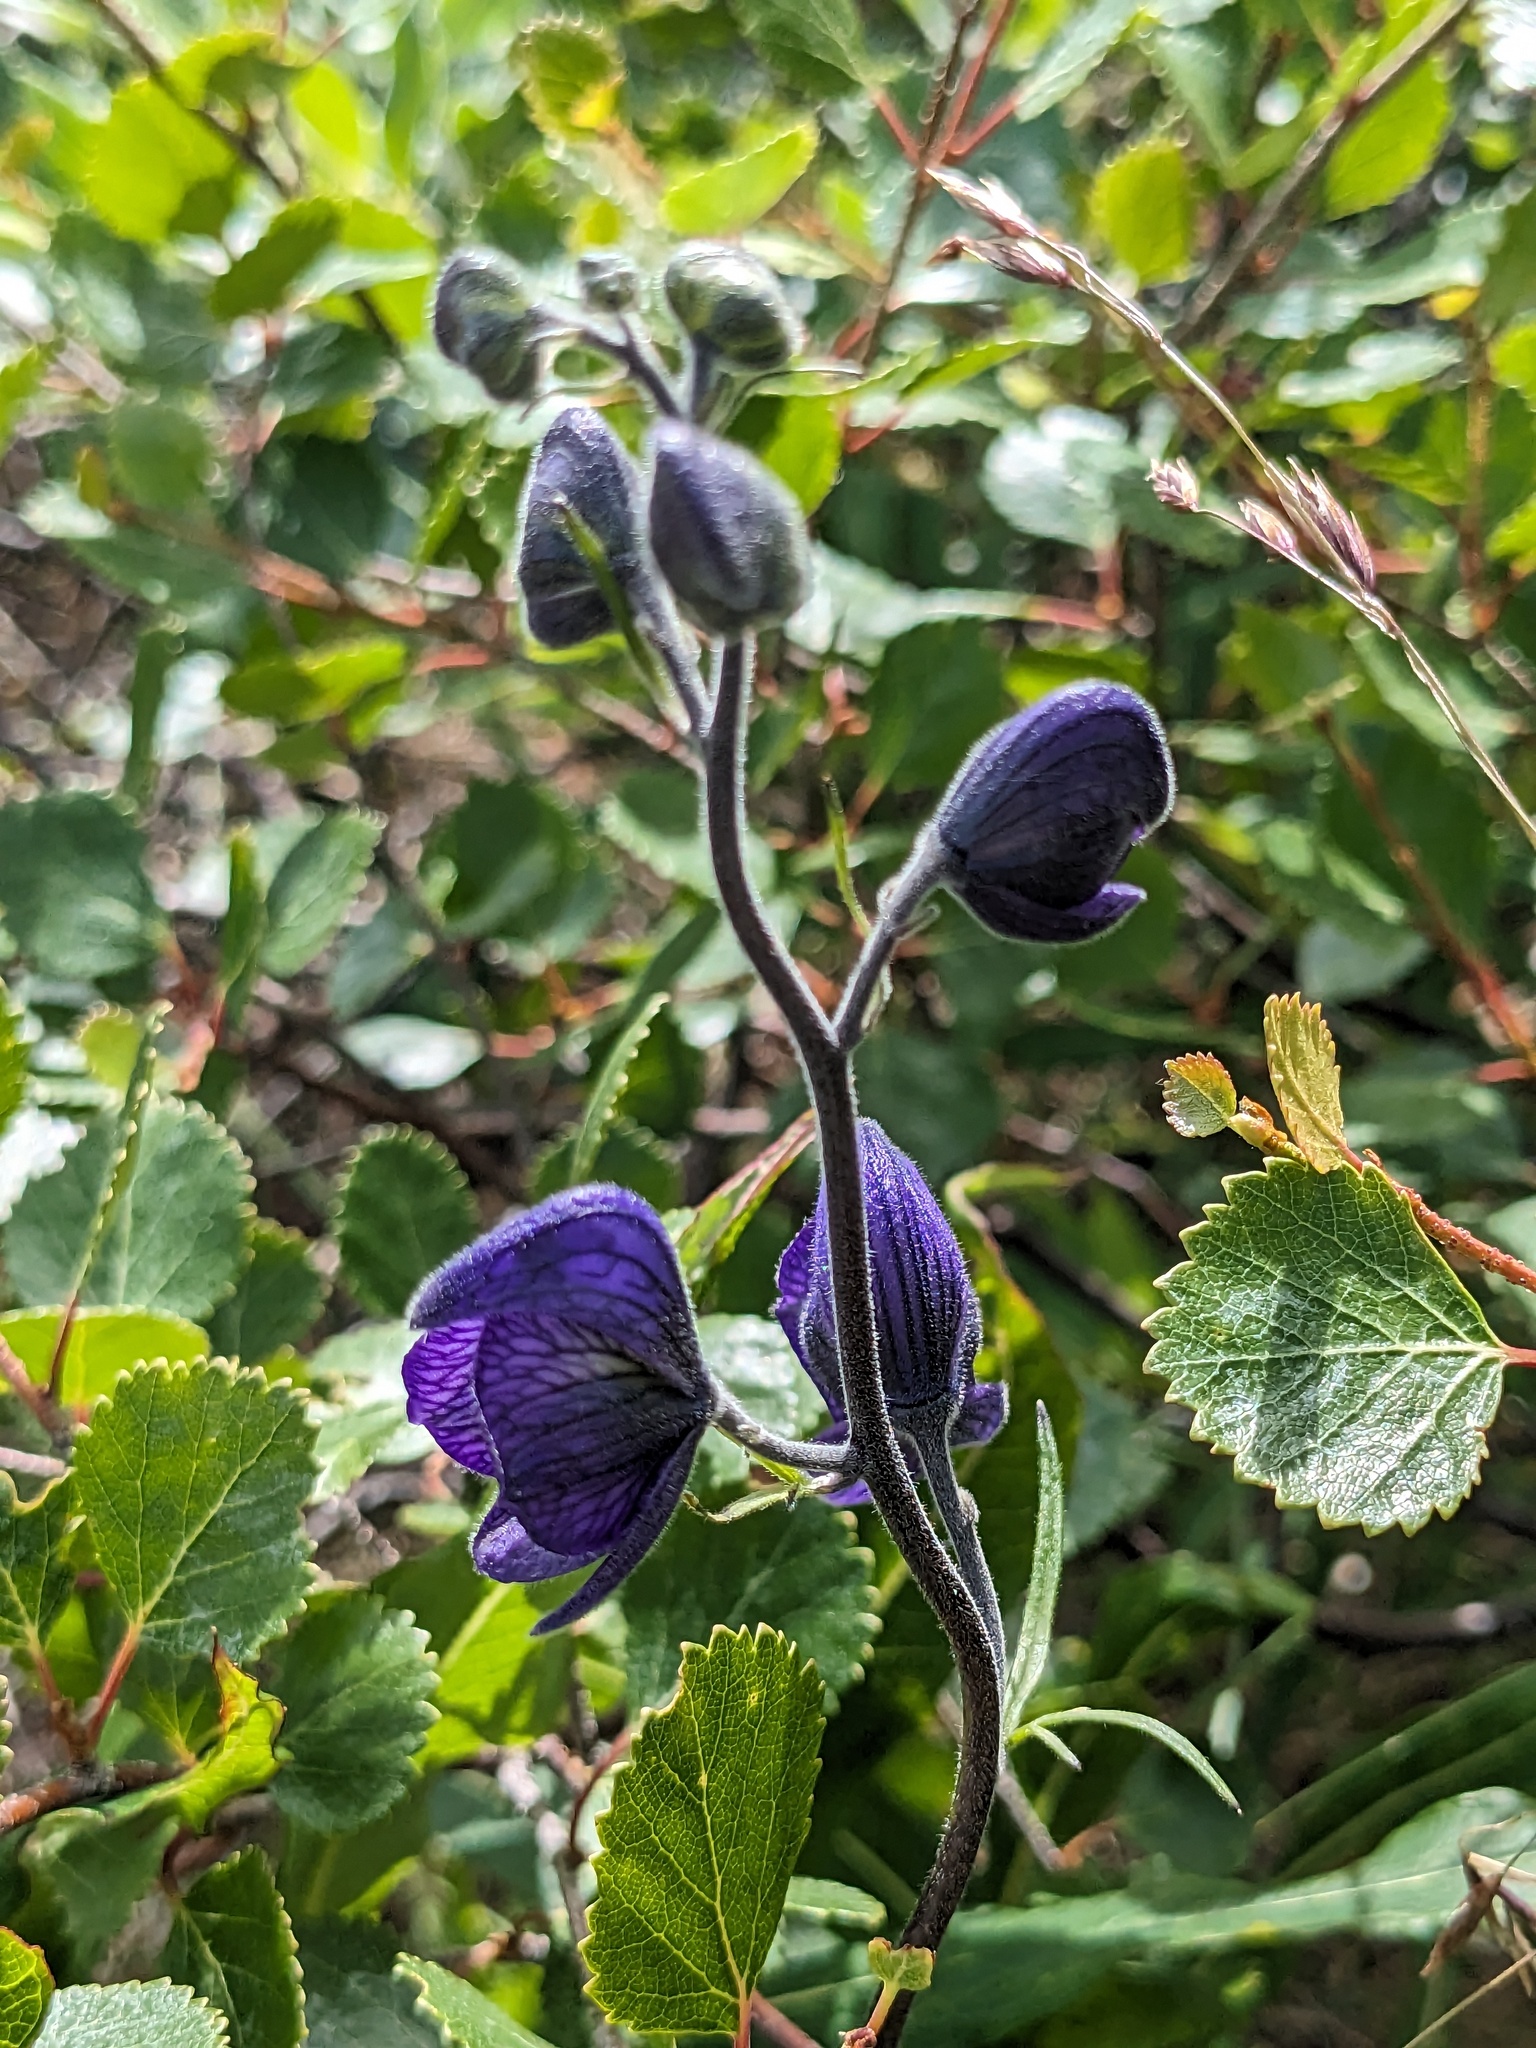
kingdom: Plantae
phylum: Tracheophyta
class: Magnoliopsida
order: Ranunculales
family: Ranunculaceae
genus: Aconitum
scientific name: Aconitum delphiniifolium
